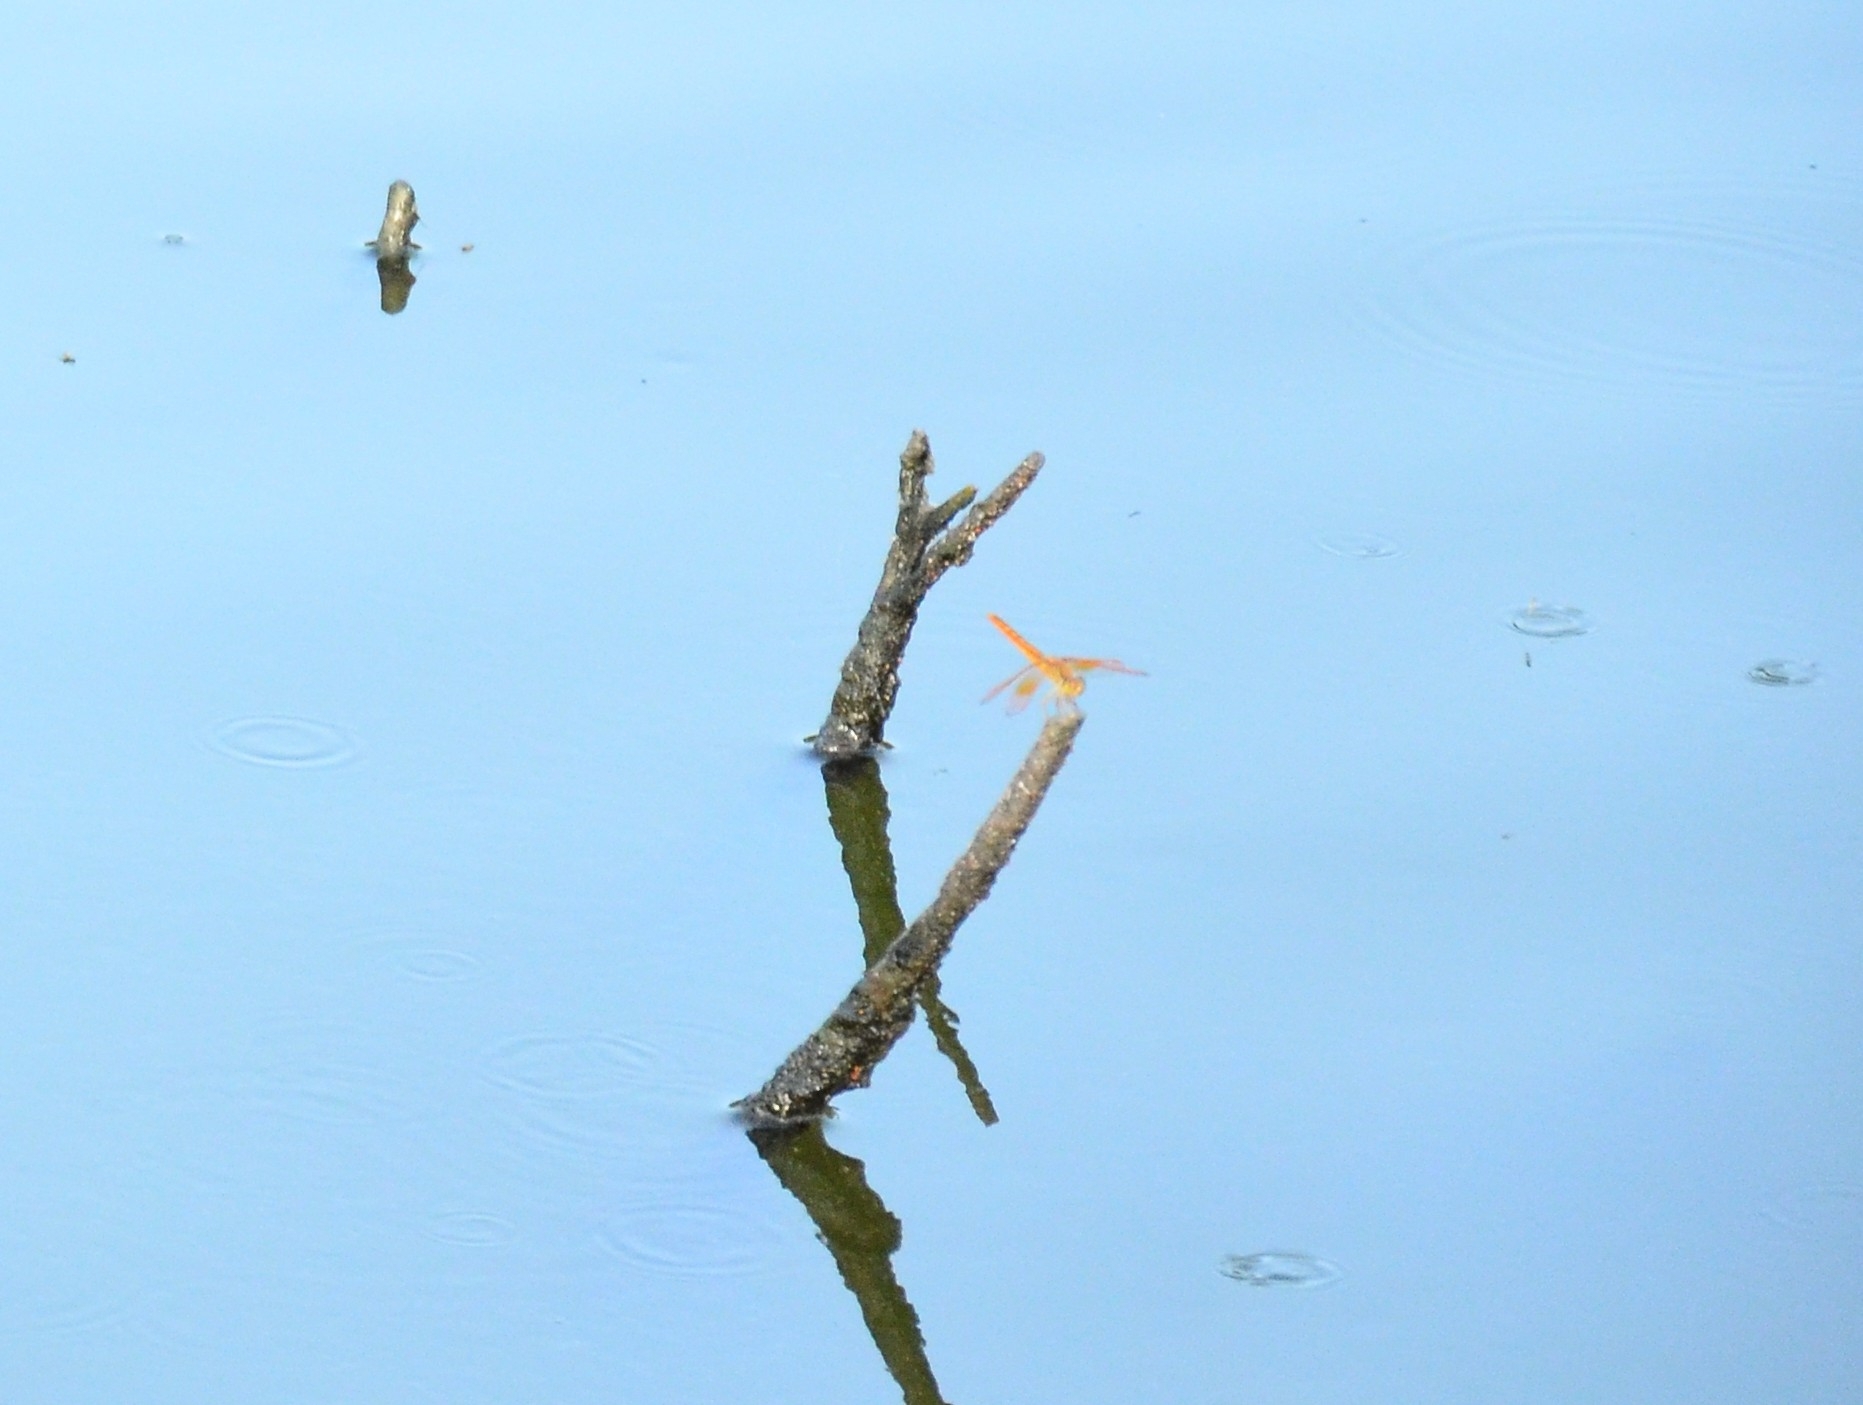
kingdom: Animalia
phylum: Arthropoda
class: Insecta
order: Odonata
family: Libellulidae
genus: Brachythemis
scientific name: Brachythemis contaminata
